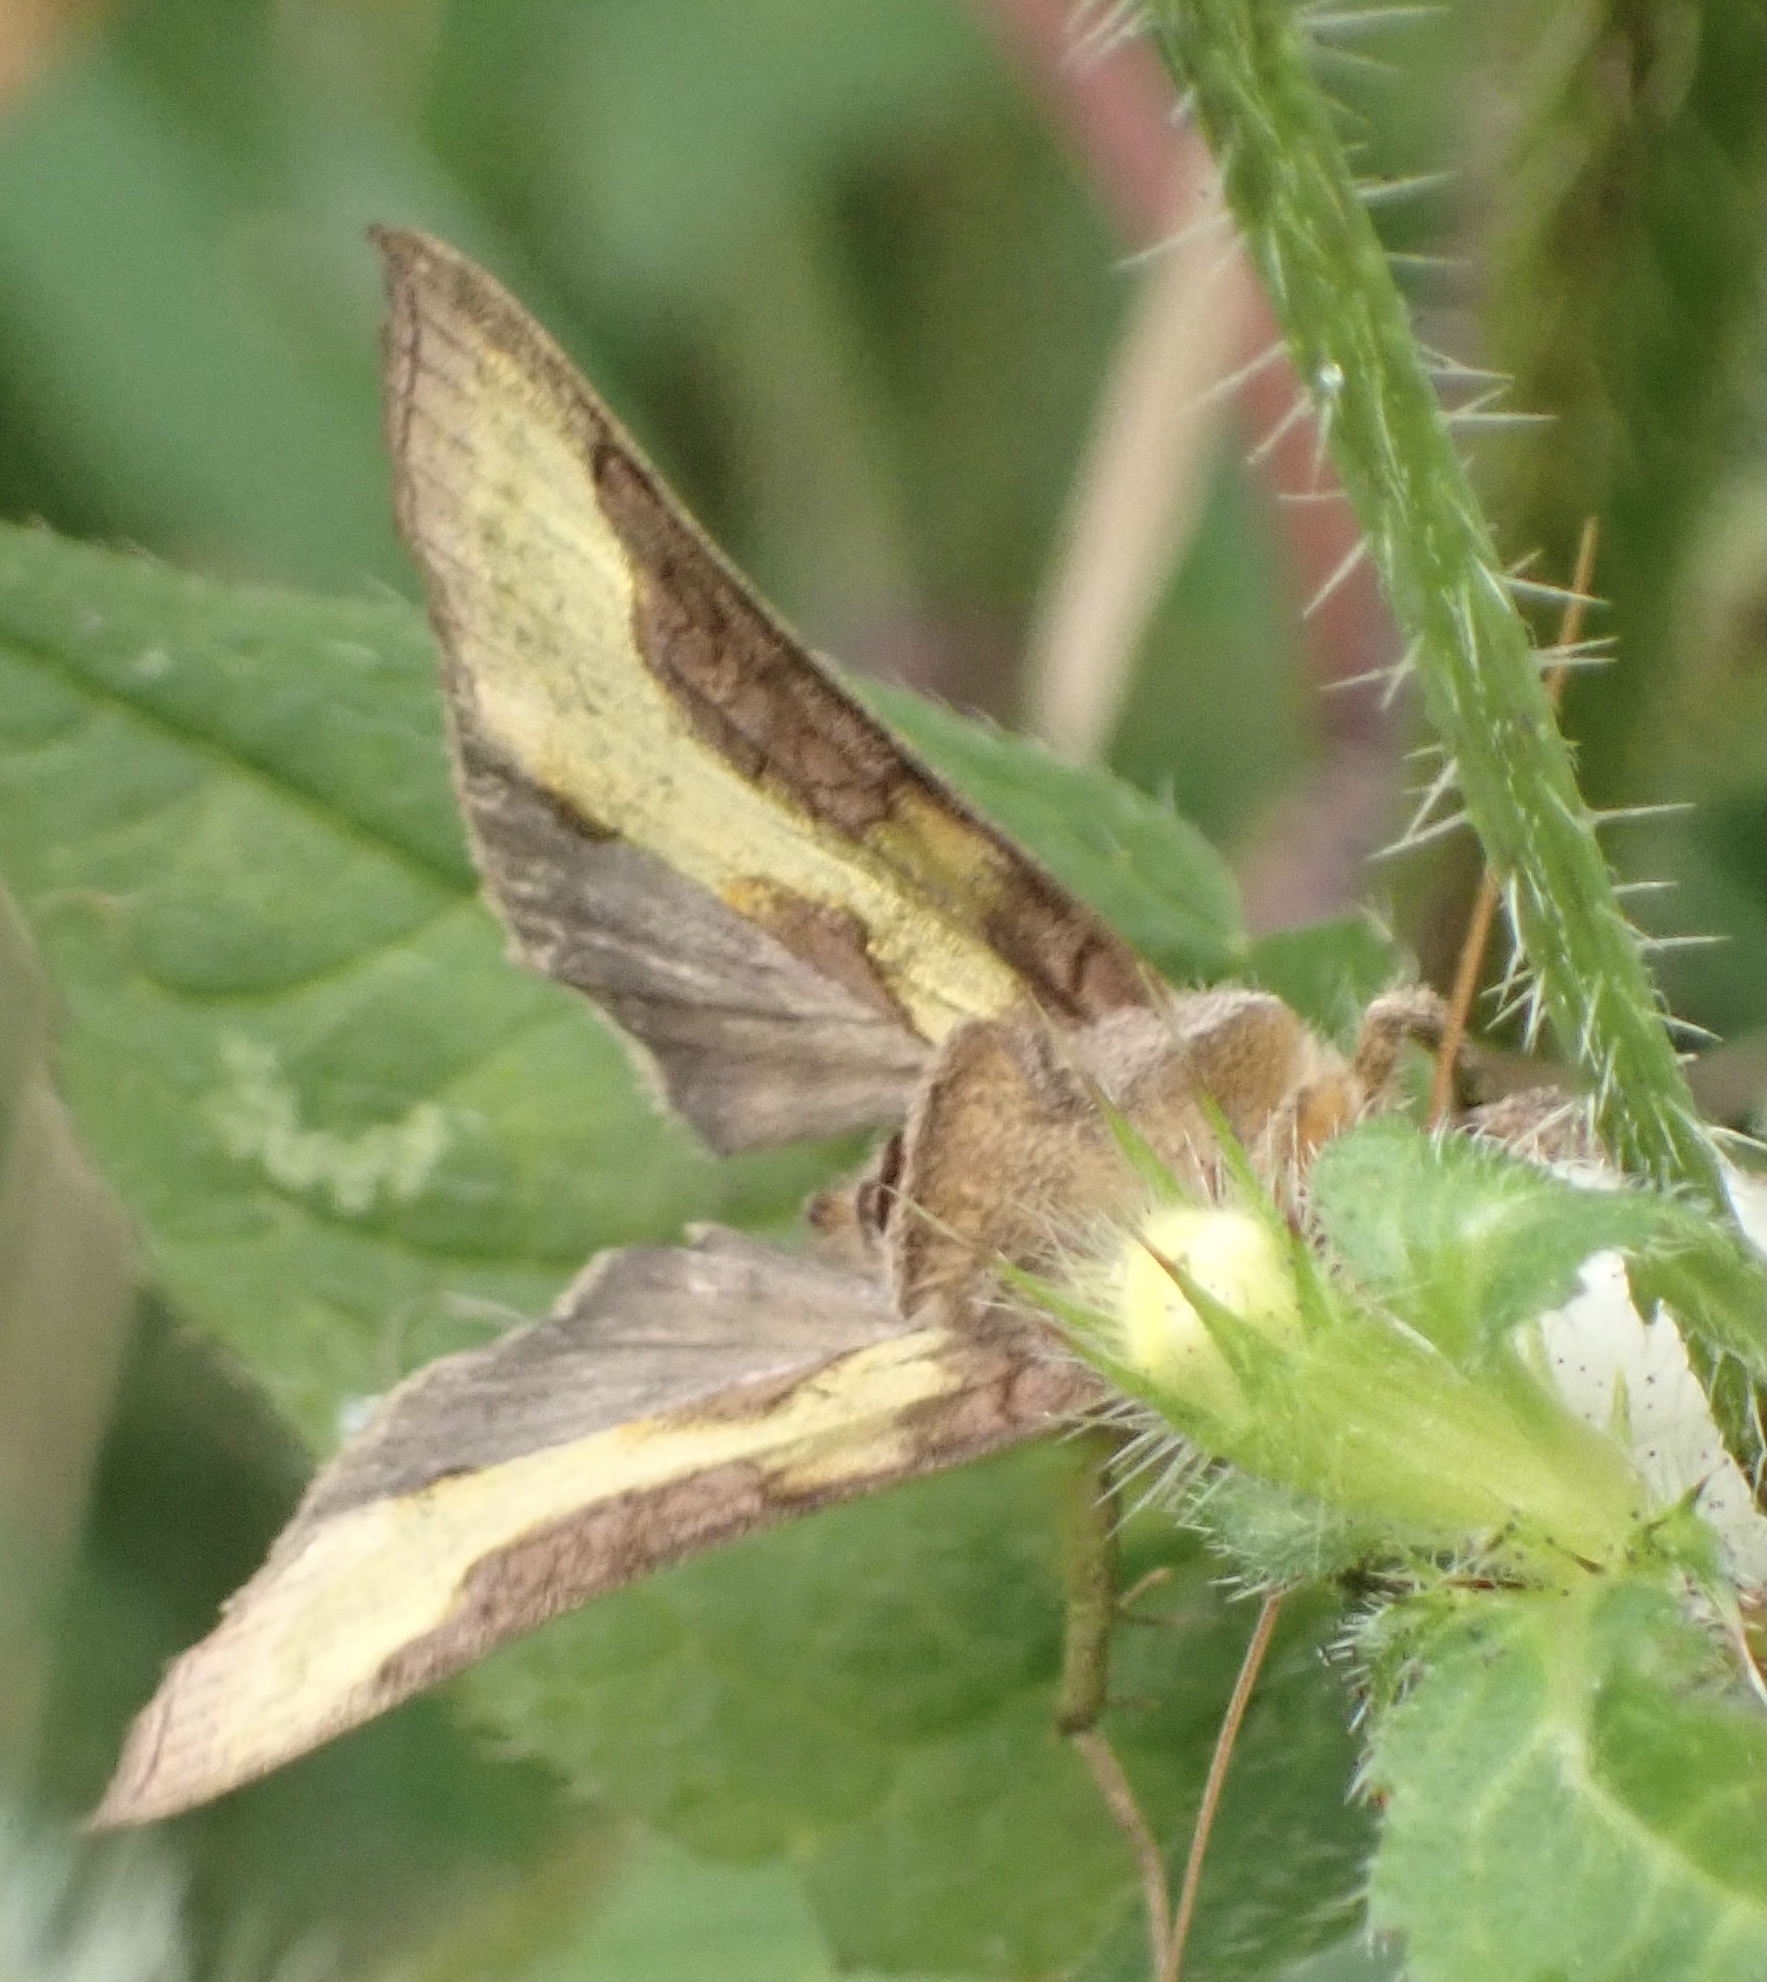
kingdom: Animalia
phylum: Arthropoda
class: Insecta
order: Lepidoptera
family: Noctuidae
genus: Diachrysia
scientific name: Diachrysia chrysitis
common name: Burnished brass
